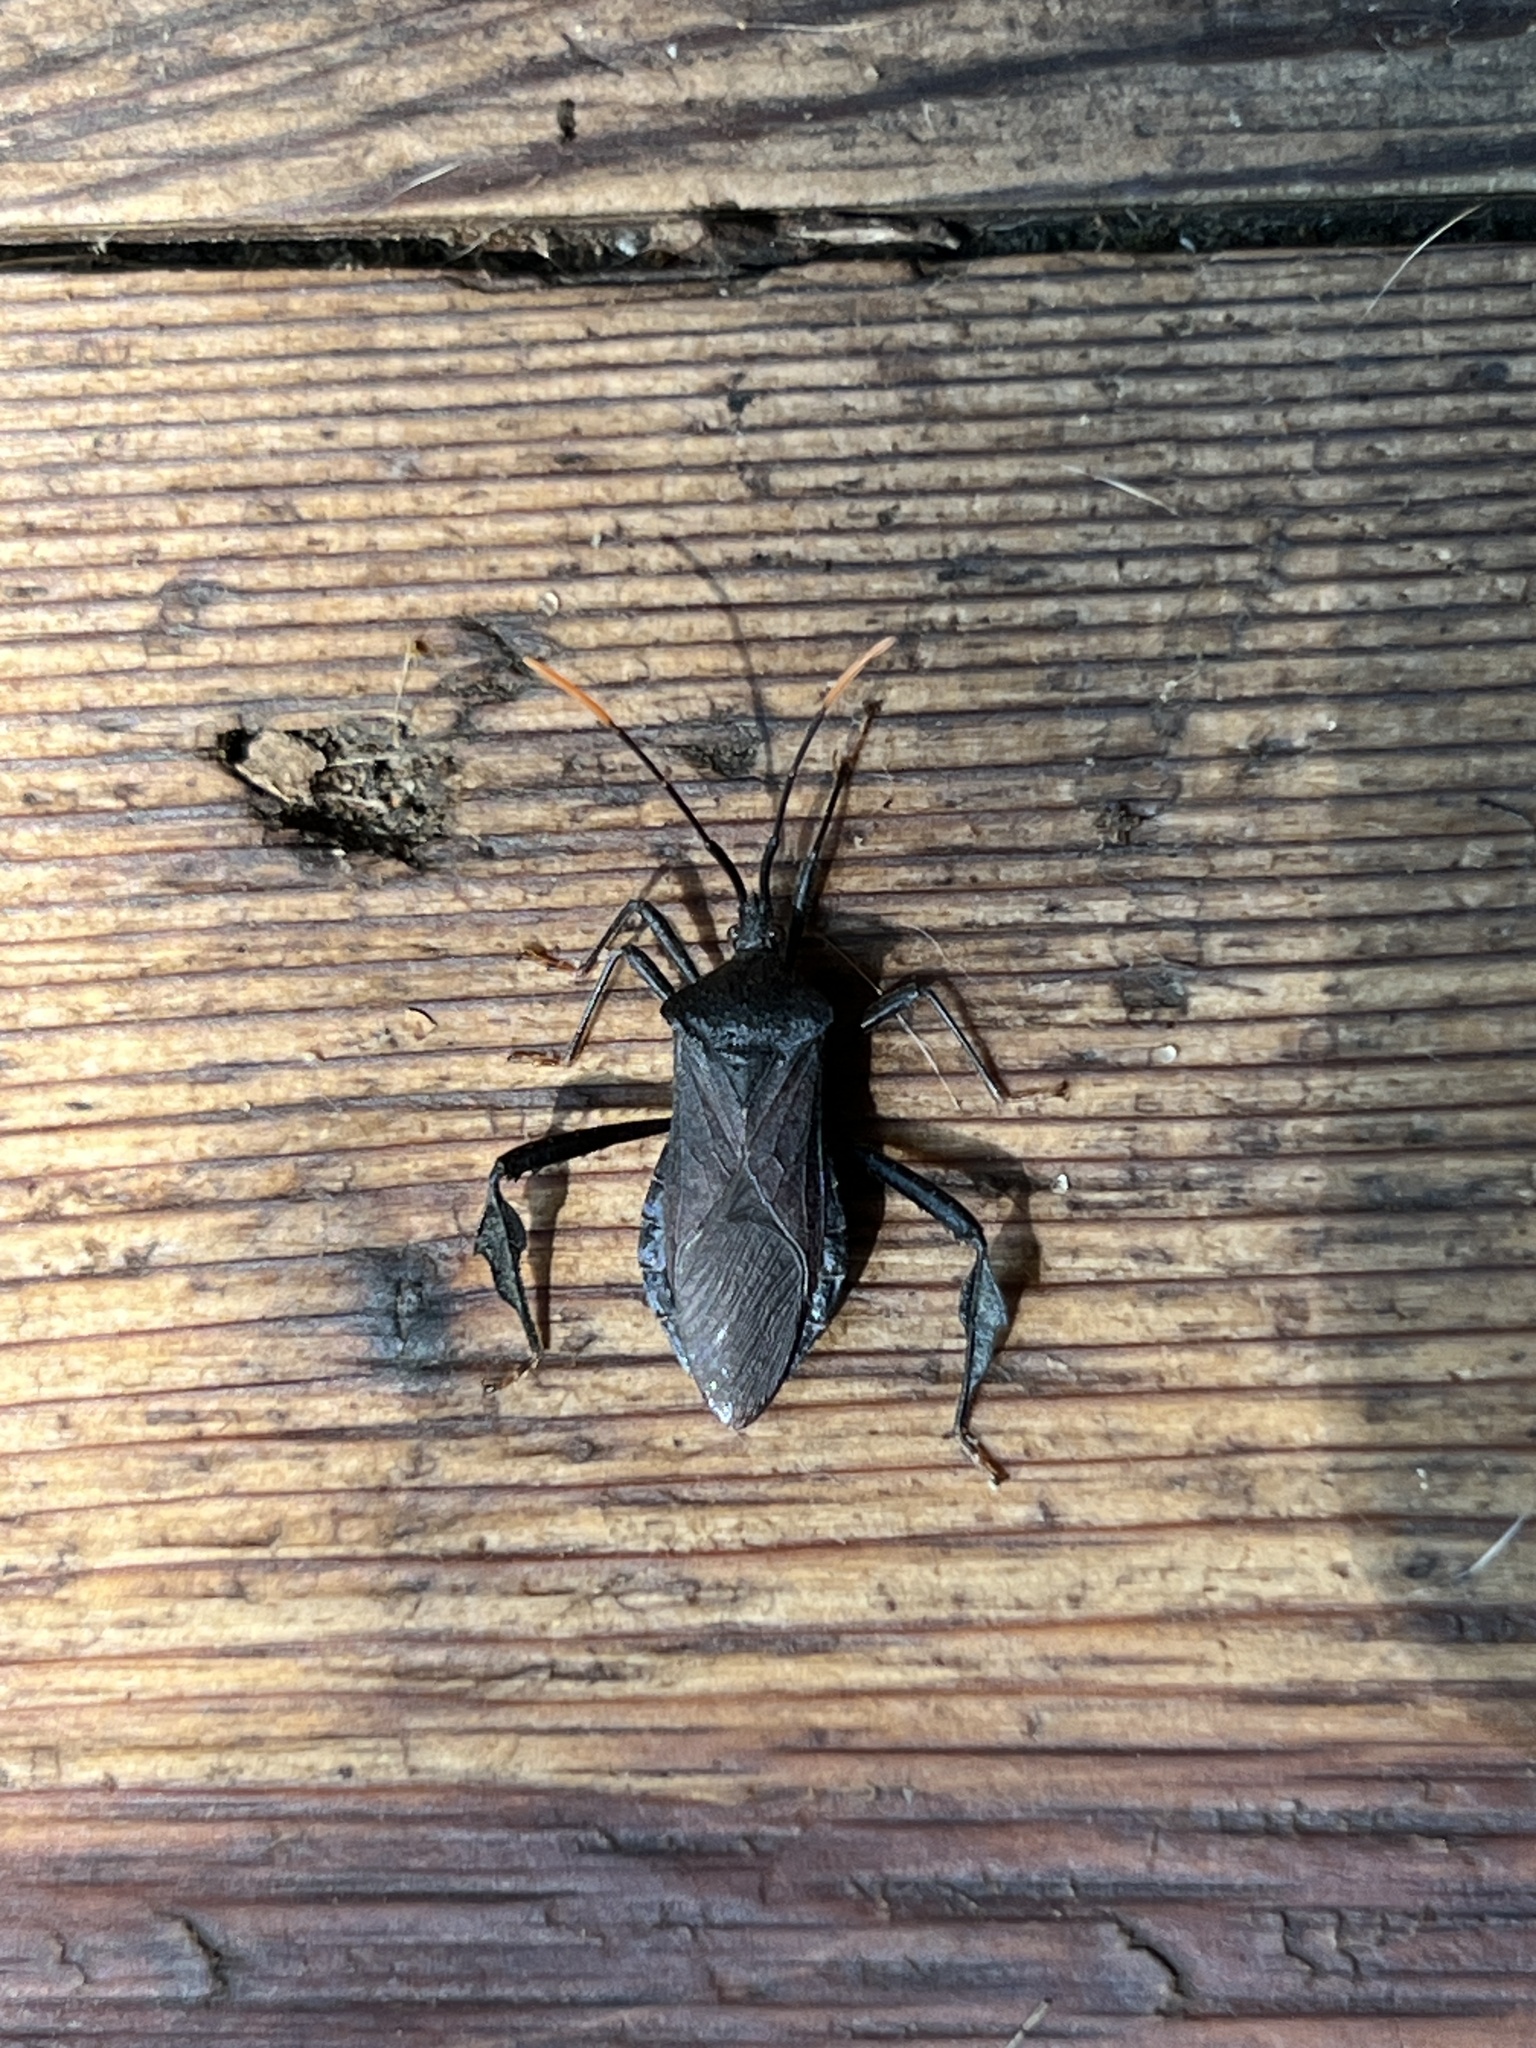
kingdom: Animalia
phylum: Arthropoda
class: Insecta
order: Hemiptera
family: Coreidae
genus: Acanthocephala
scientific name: Acanthocephala terminalis
